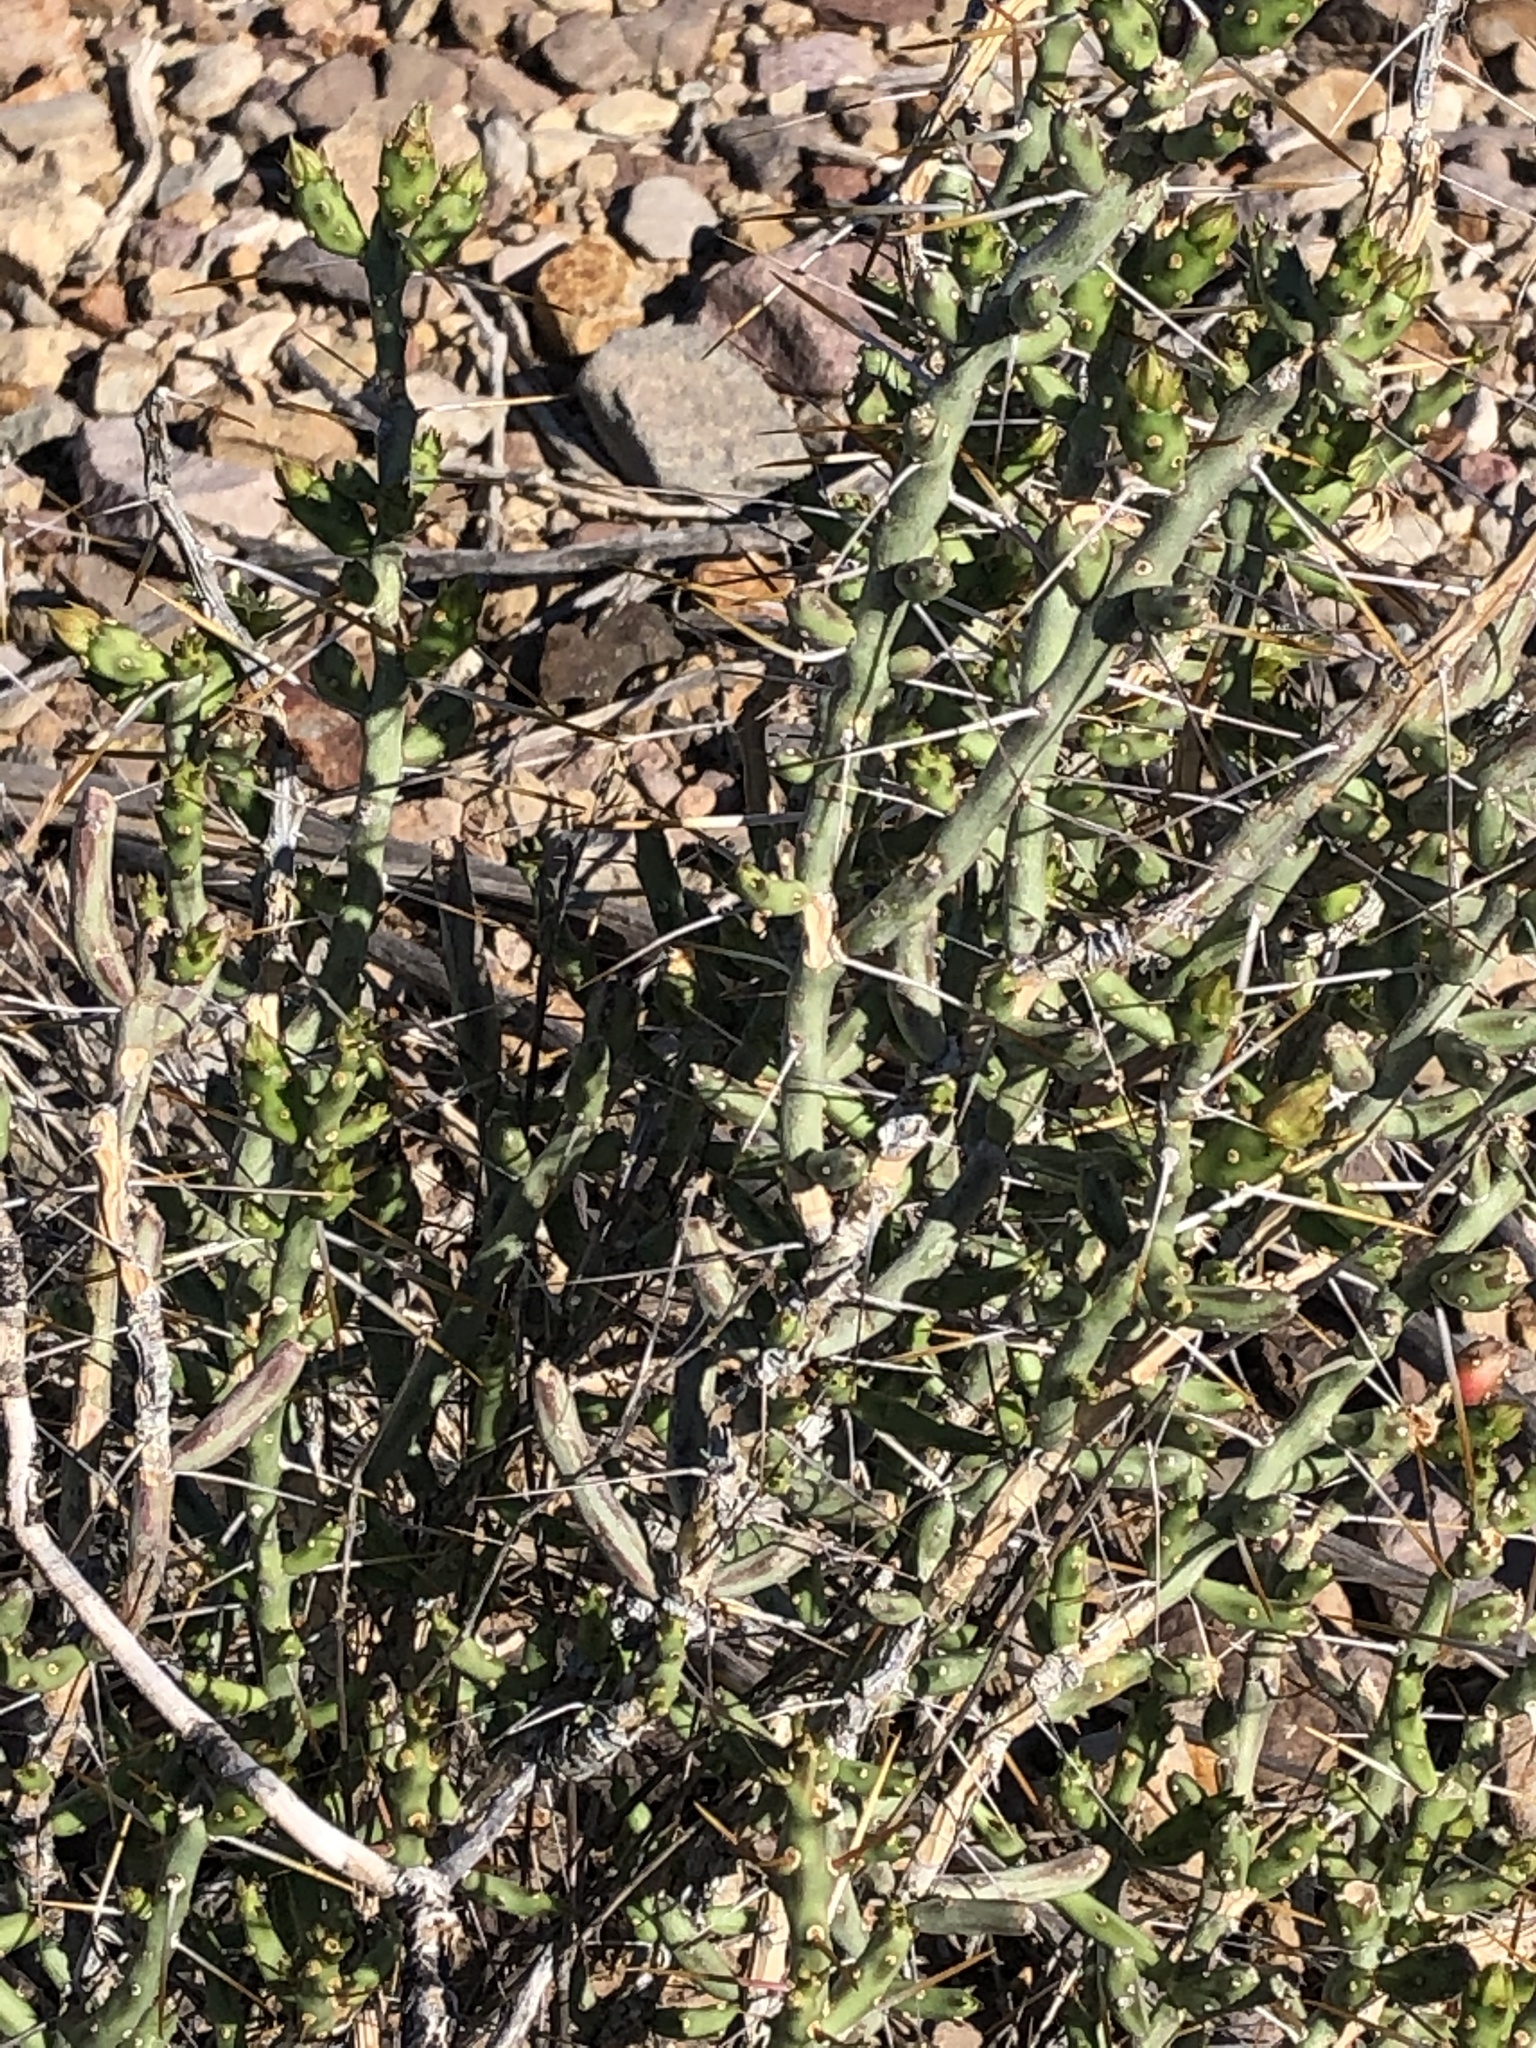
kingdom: Plantae
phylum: Tracheophyta
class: Magnoliopsida
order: Caryophyllales
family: Cactaceae
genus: Cylindropuntia
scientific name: Cylindropuntia leptocaulis
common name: Christmas cactus
